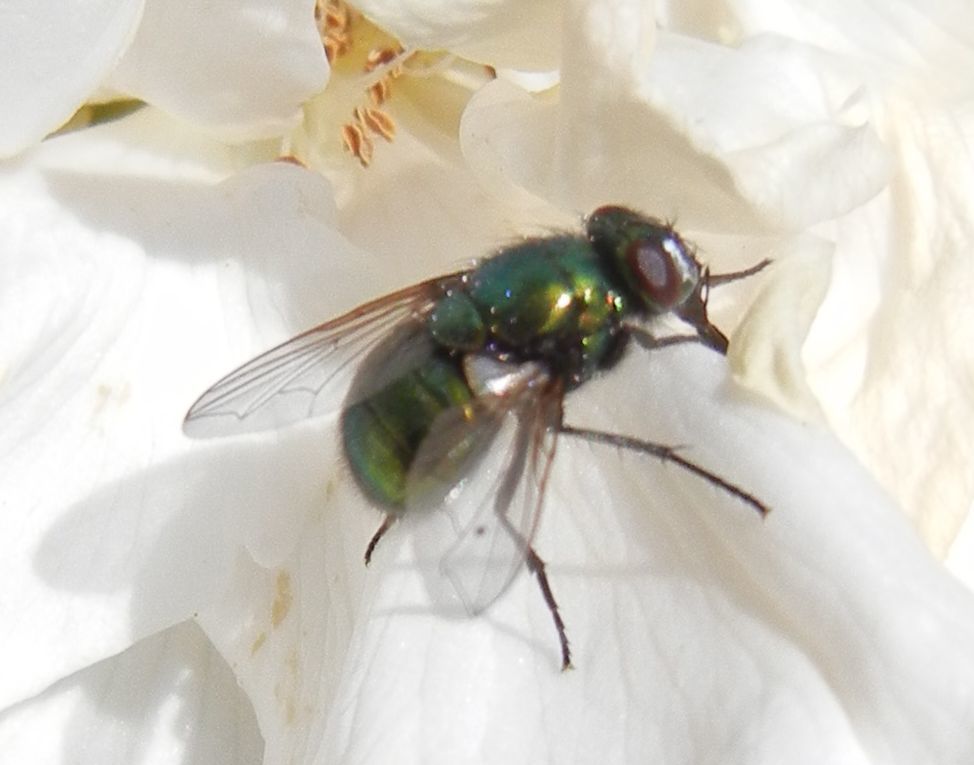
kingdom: Animalia
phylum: Arthropoda
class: Insecta
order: Diptera
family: Muscidae
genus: Neomyia
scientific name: Neomyia
